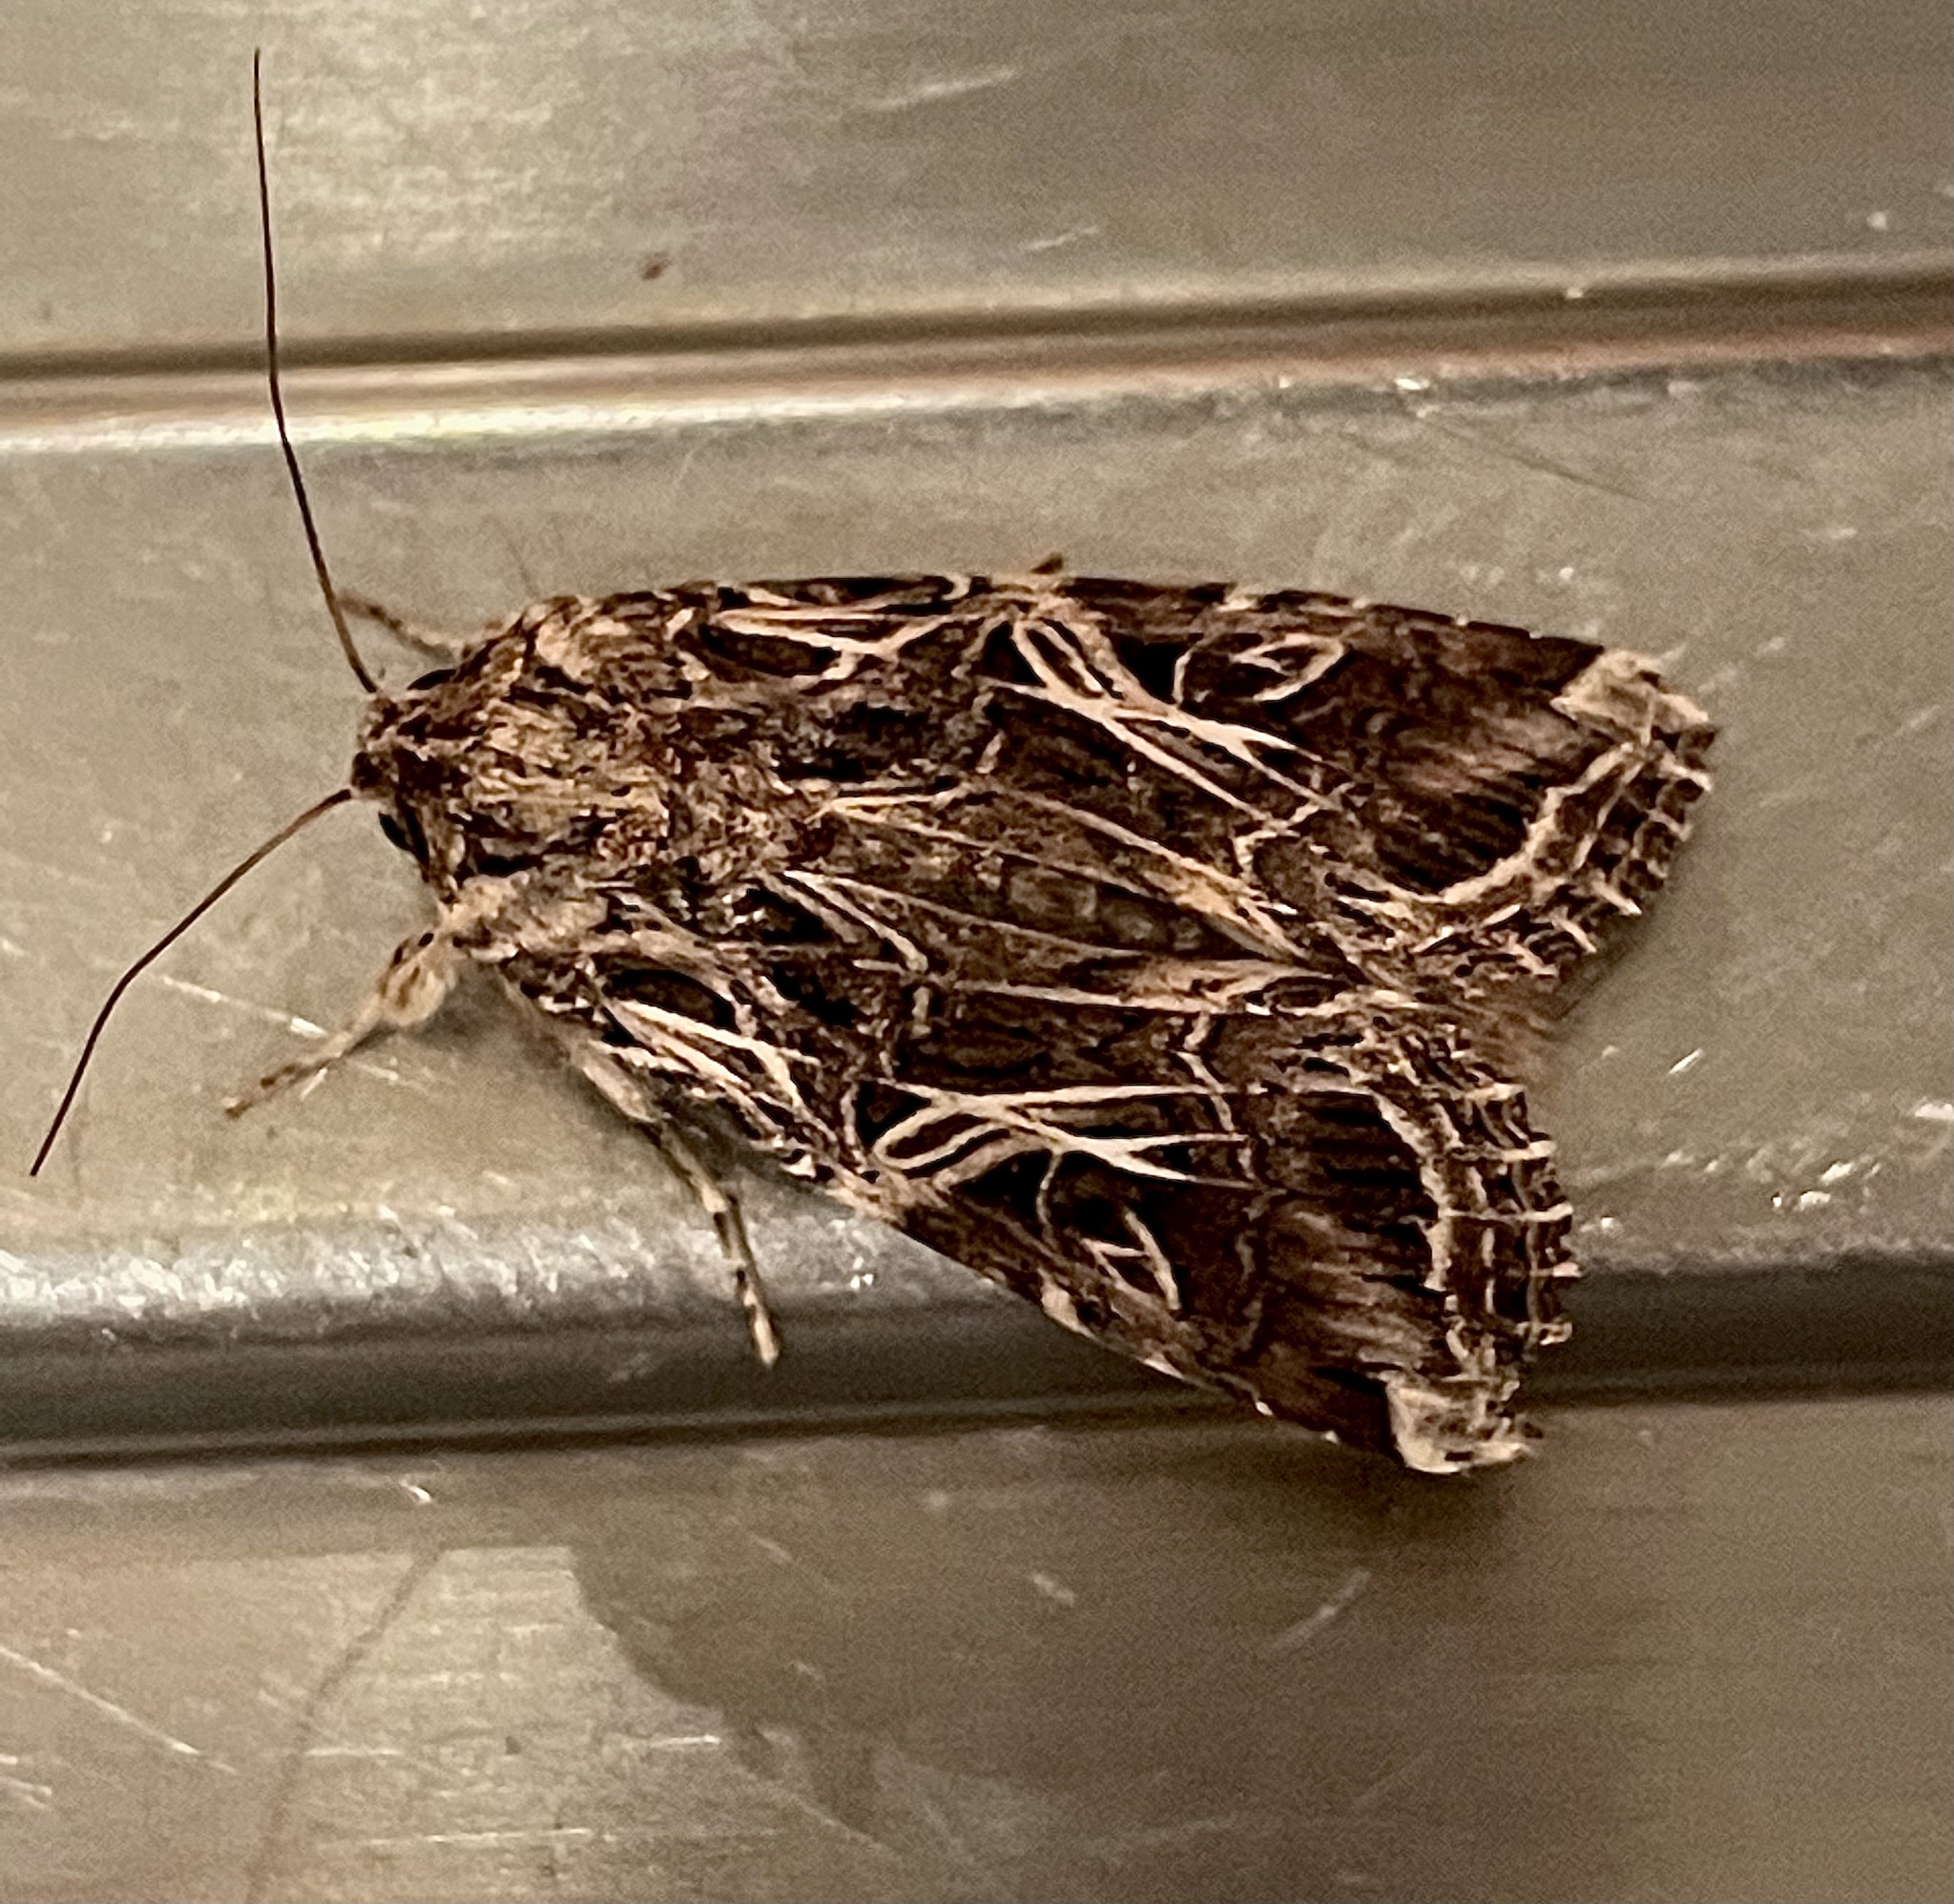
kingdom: Animalia
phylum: Arthropoda
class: Insecta
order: Lepidoptera
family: Noctuidae
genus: Spodoptera
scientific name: Spodoptera litura
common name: Asian cotton leafworm
